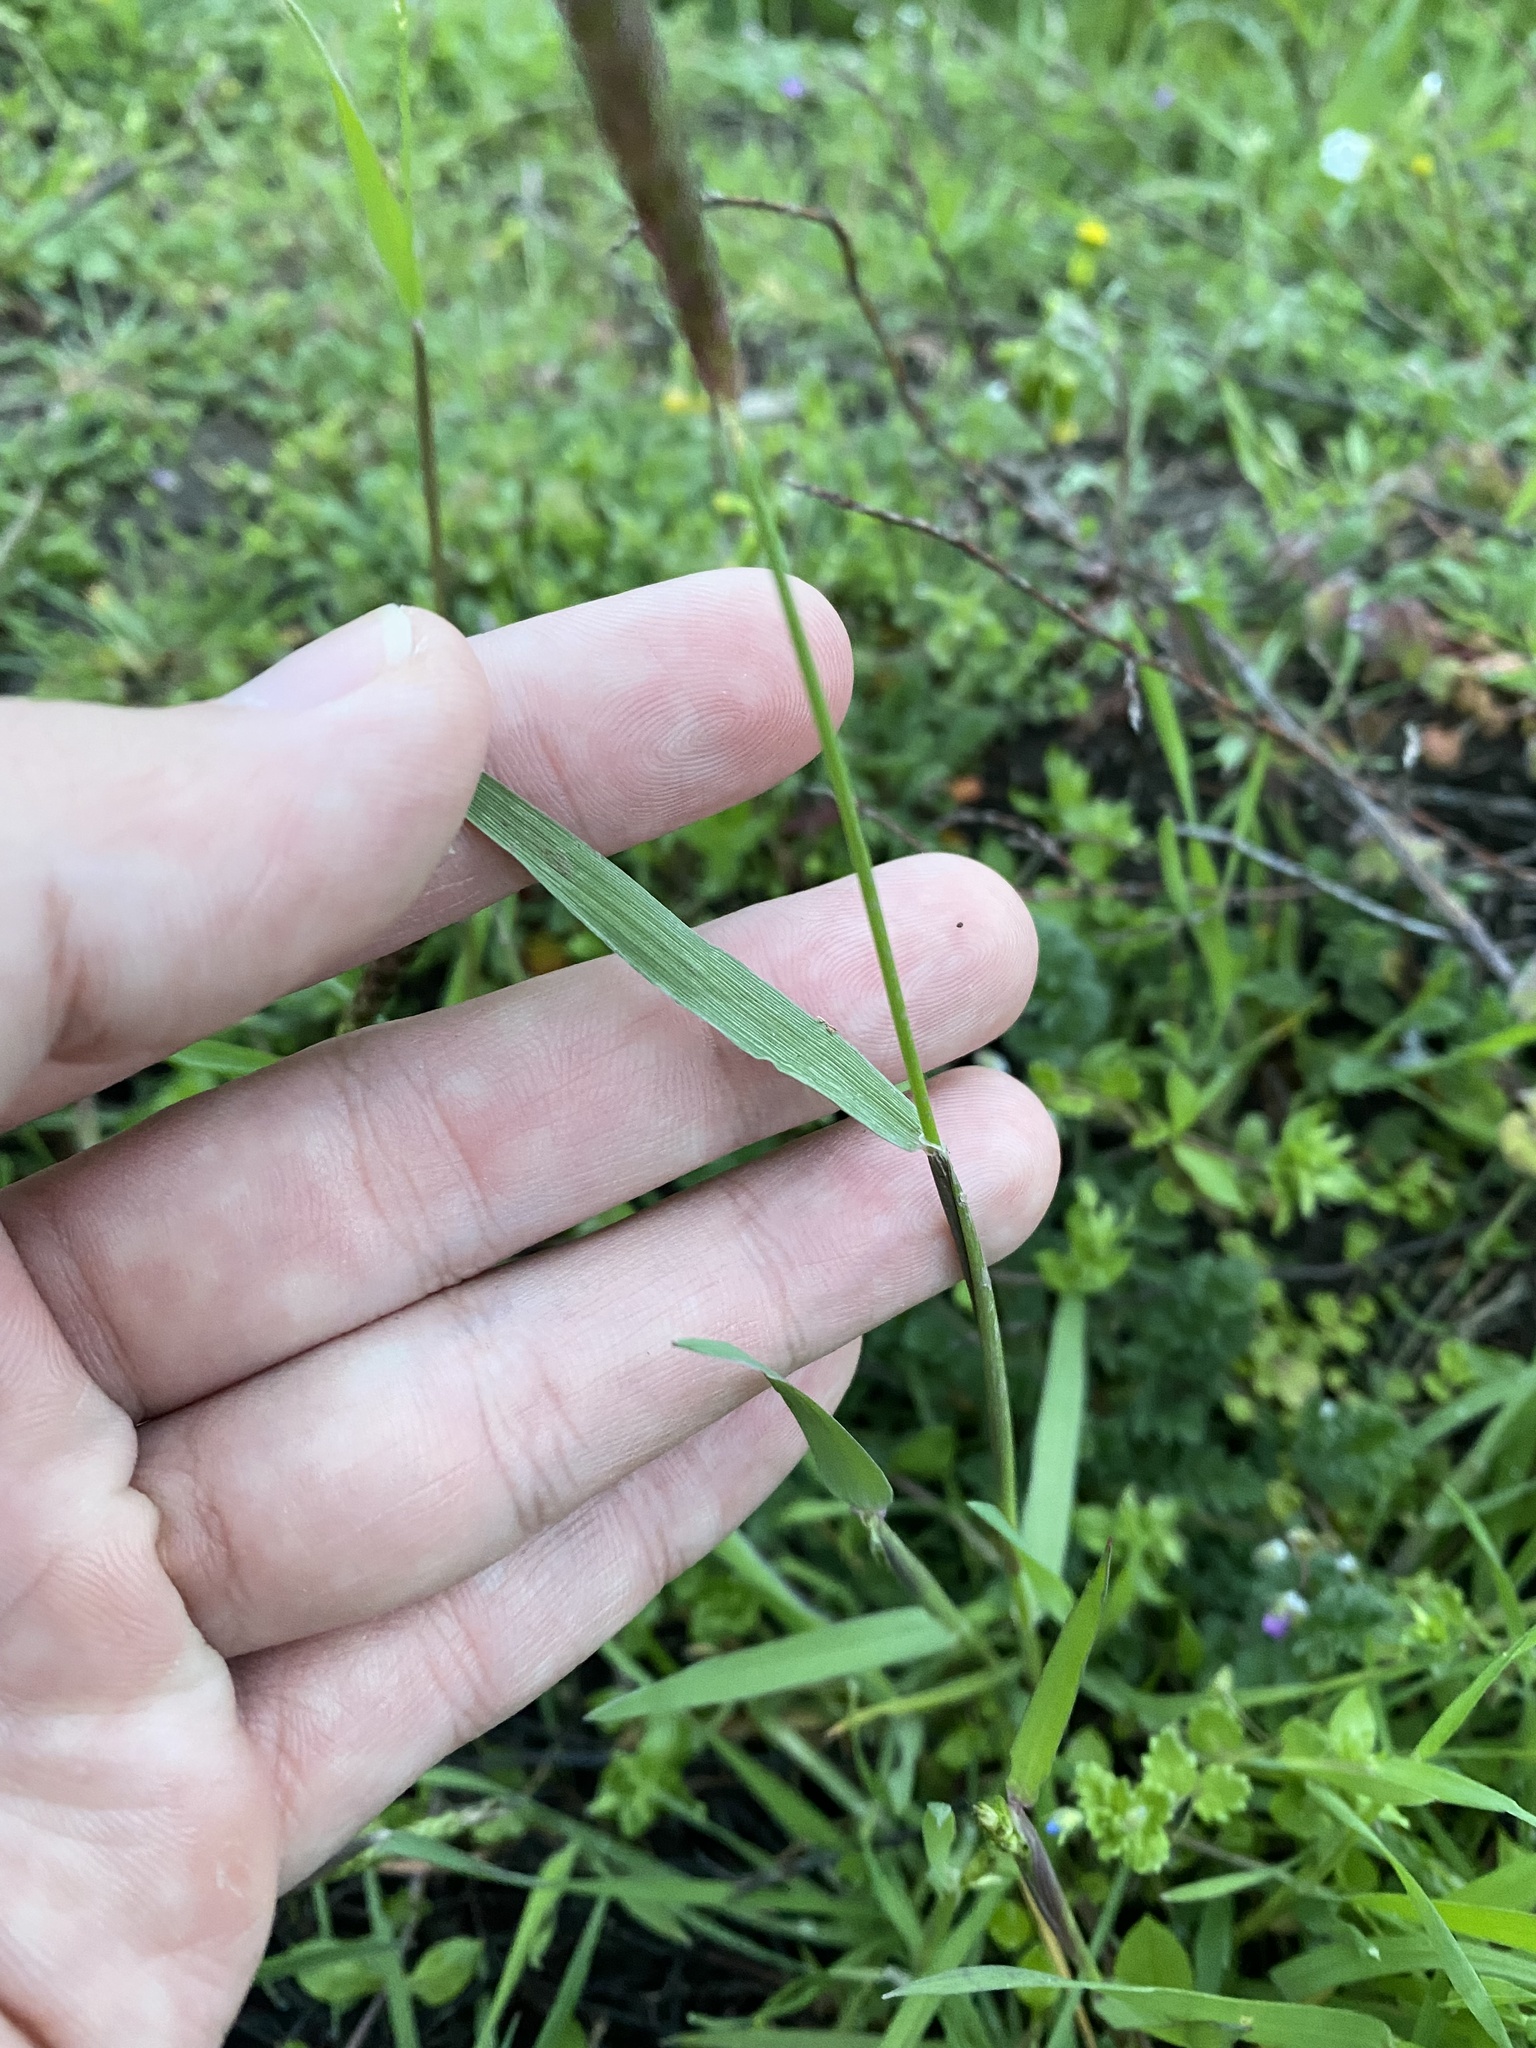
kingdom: Plantae
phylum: Tracheophyta
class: Liliopsida
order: Poales
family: Poaceae
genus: Alopecurus
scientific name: Alopecurus myosuroides
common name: Black-grass
